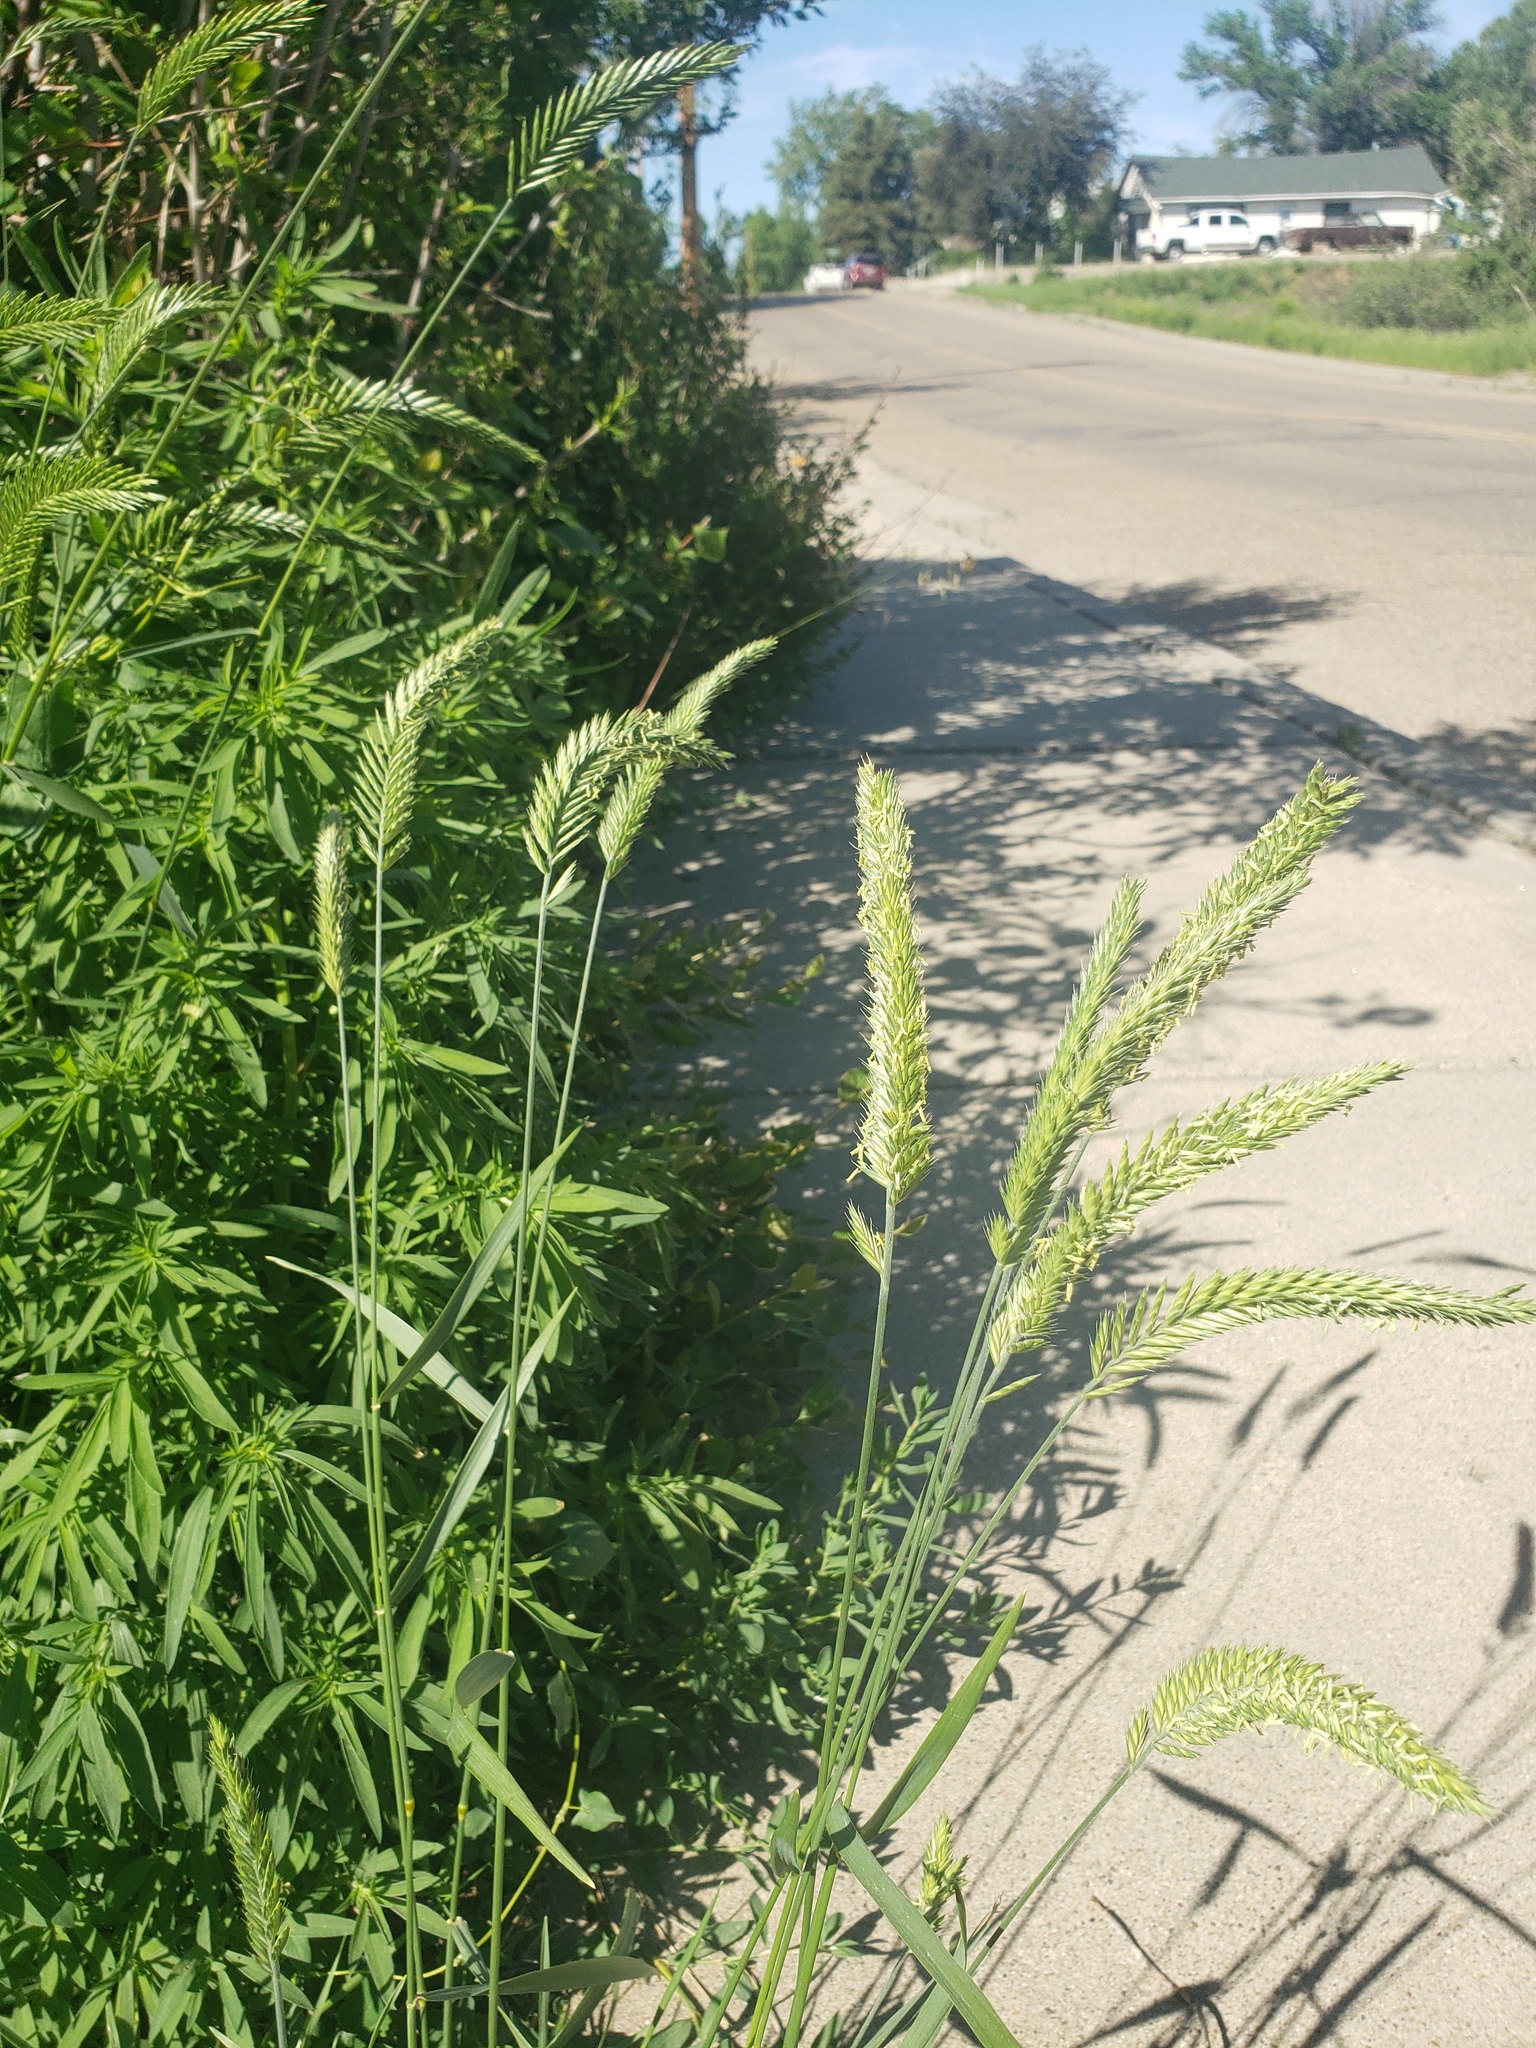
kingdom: Plantae
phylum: Tracheophyta
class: Liliopsida
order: Poales
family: Poaceae
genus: Agropyron
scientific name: Agropyron cristatum
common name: Crested wheatgrass
